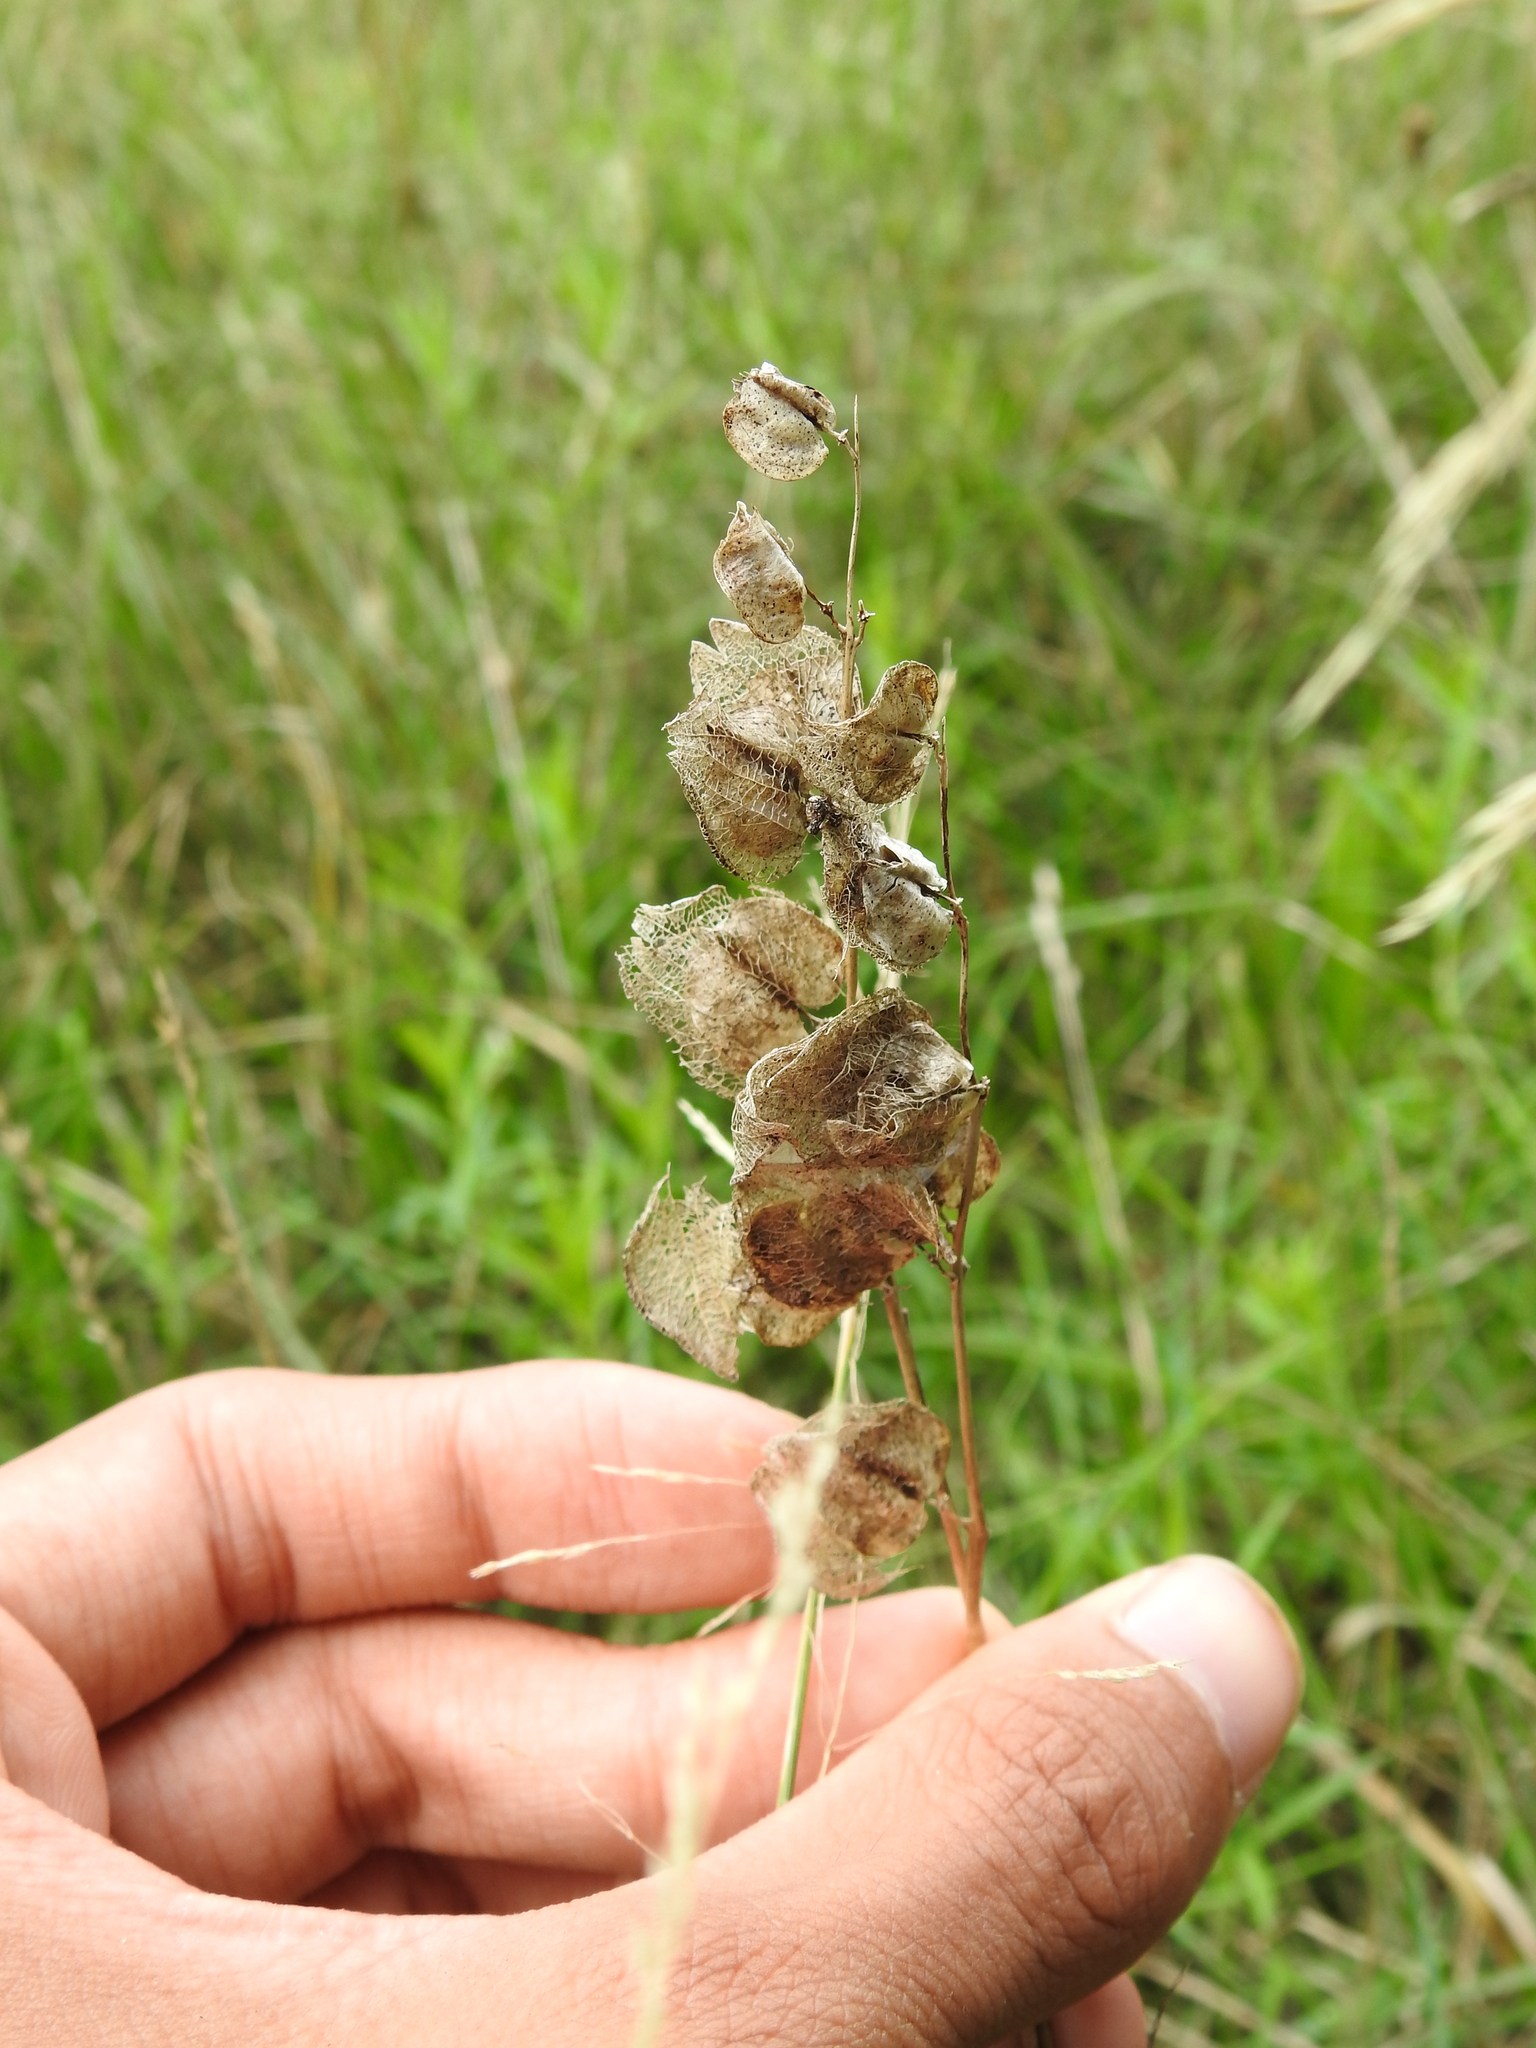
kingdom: Plantae
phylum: Tracheophyta
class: Magnoliopsida
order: Lamiales
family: Orobanchaceae
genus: Rhinanthus
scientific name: Rhinanthus
